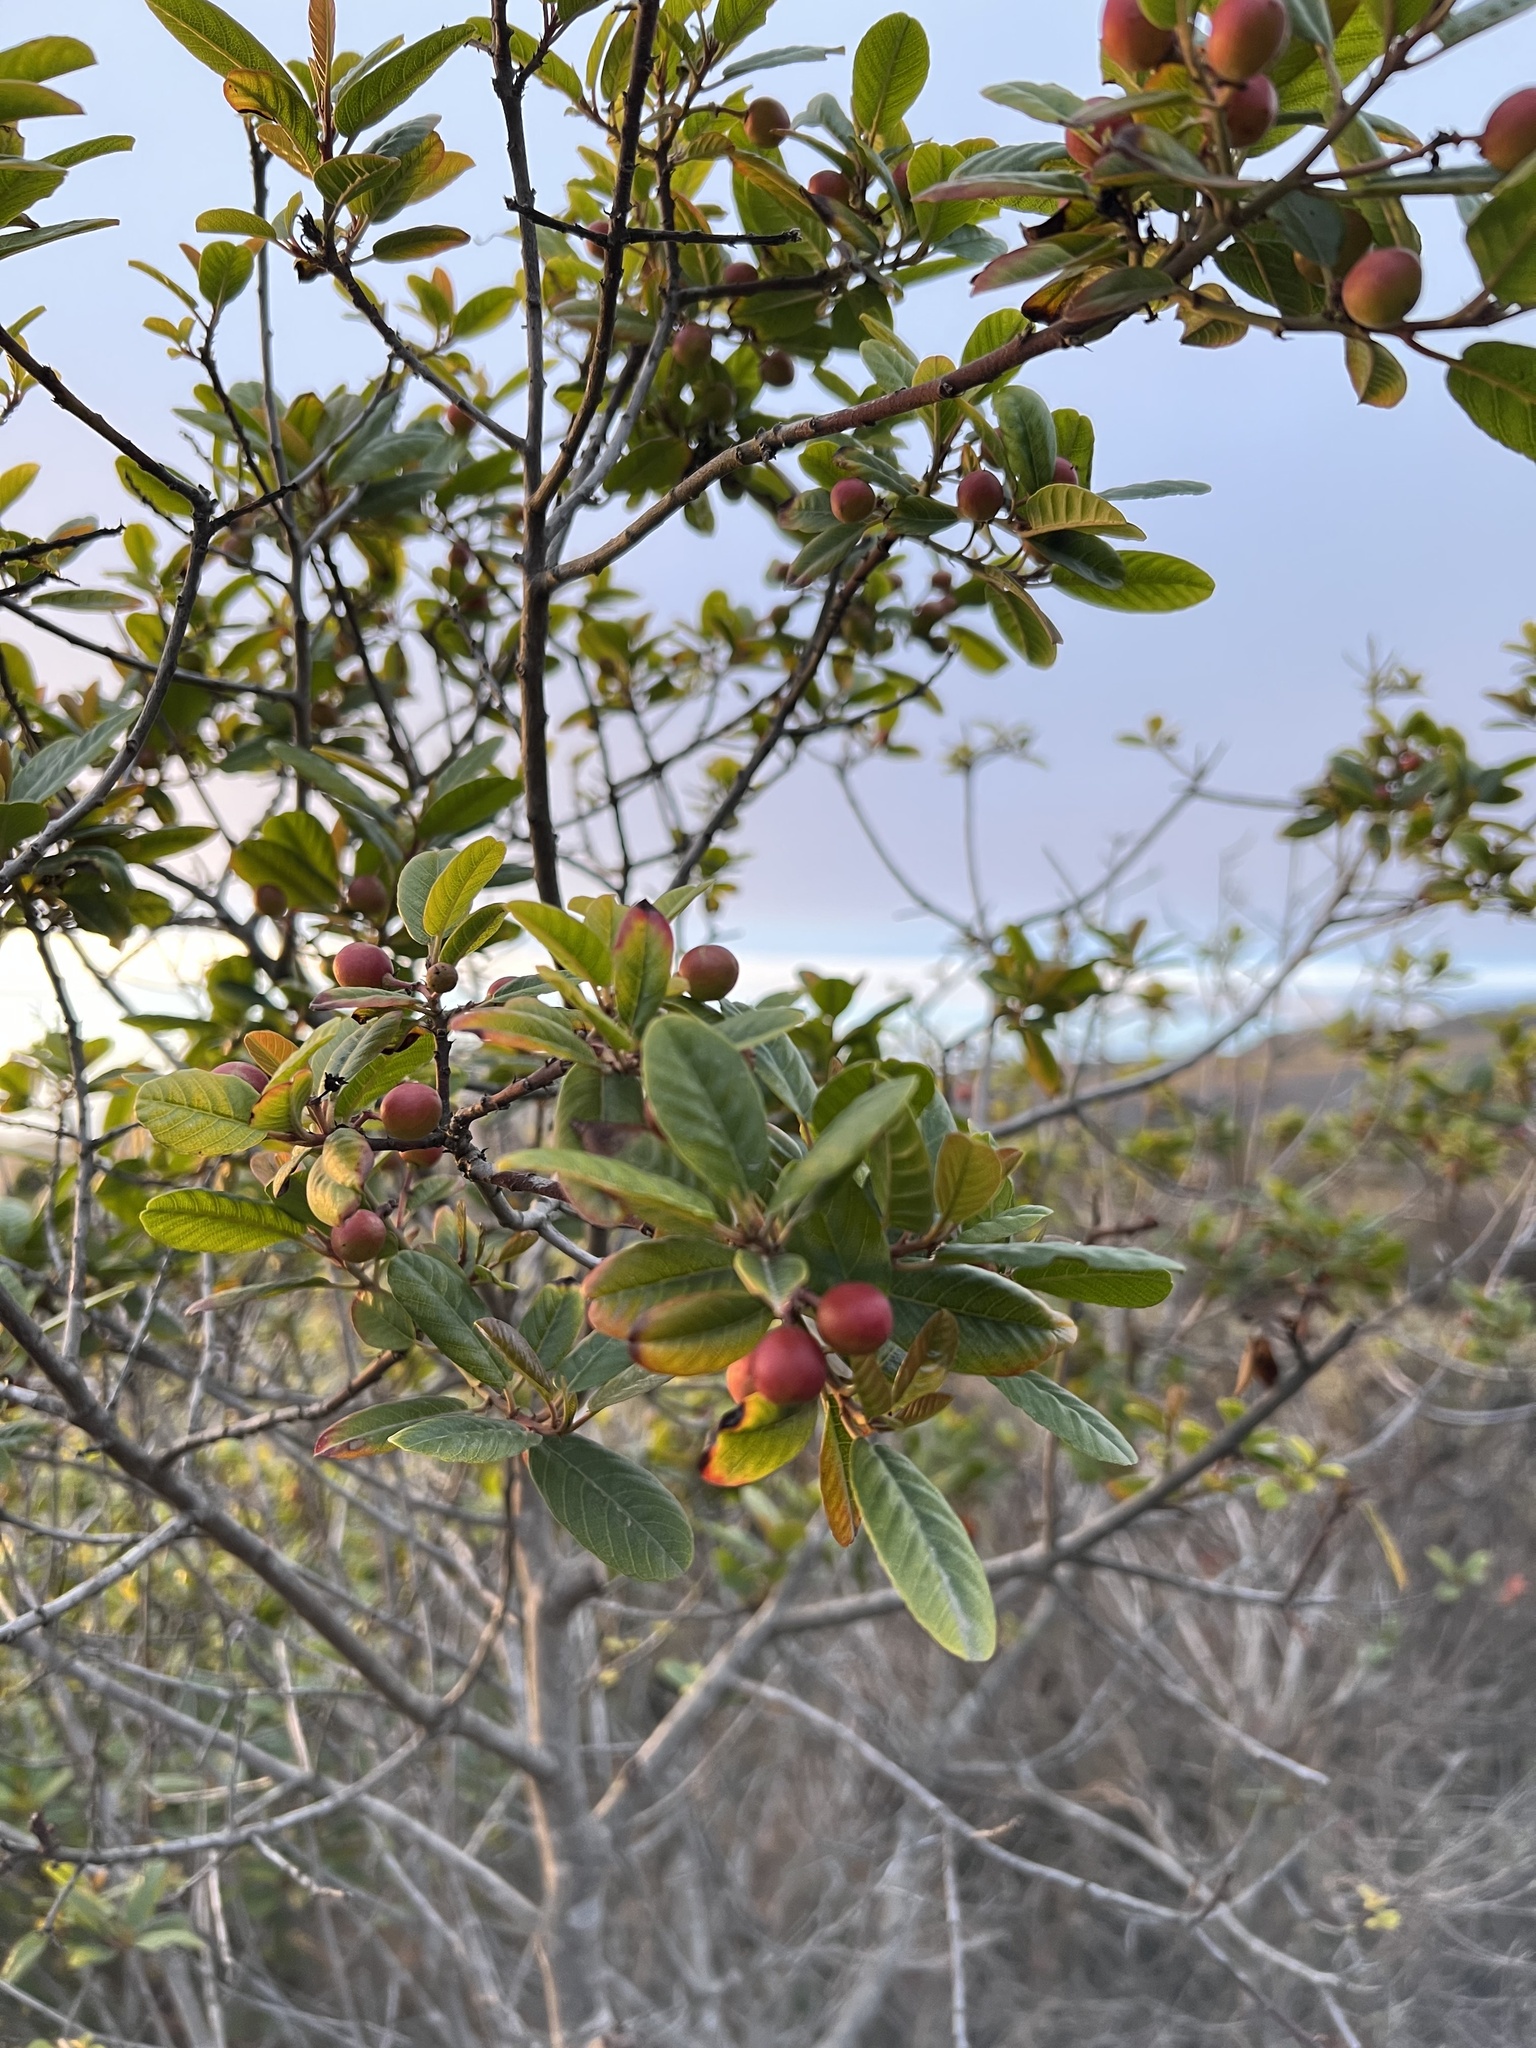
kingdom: Plantae
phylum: Tracheophyta
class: Magnoliopsida
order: Rosales
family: Rhamnaceae
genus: Frangula
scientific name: Frangula californica
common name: California buckthorn
